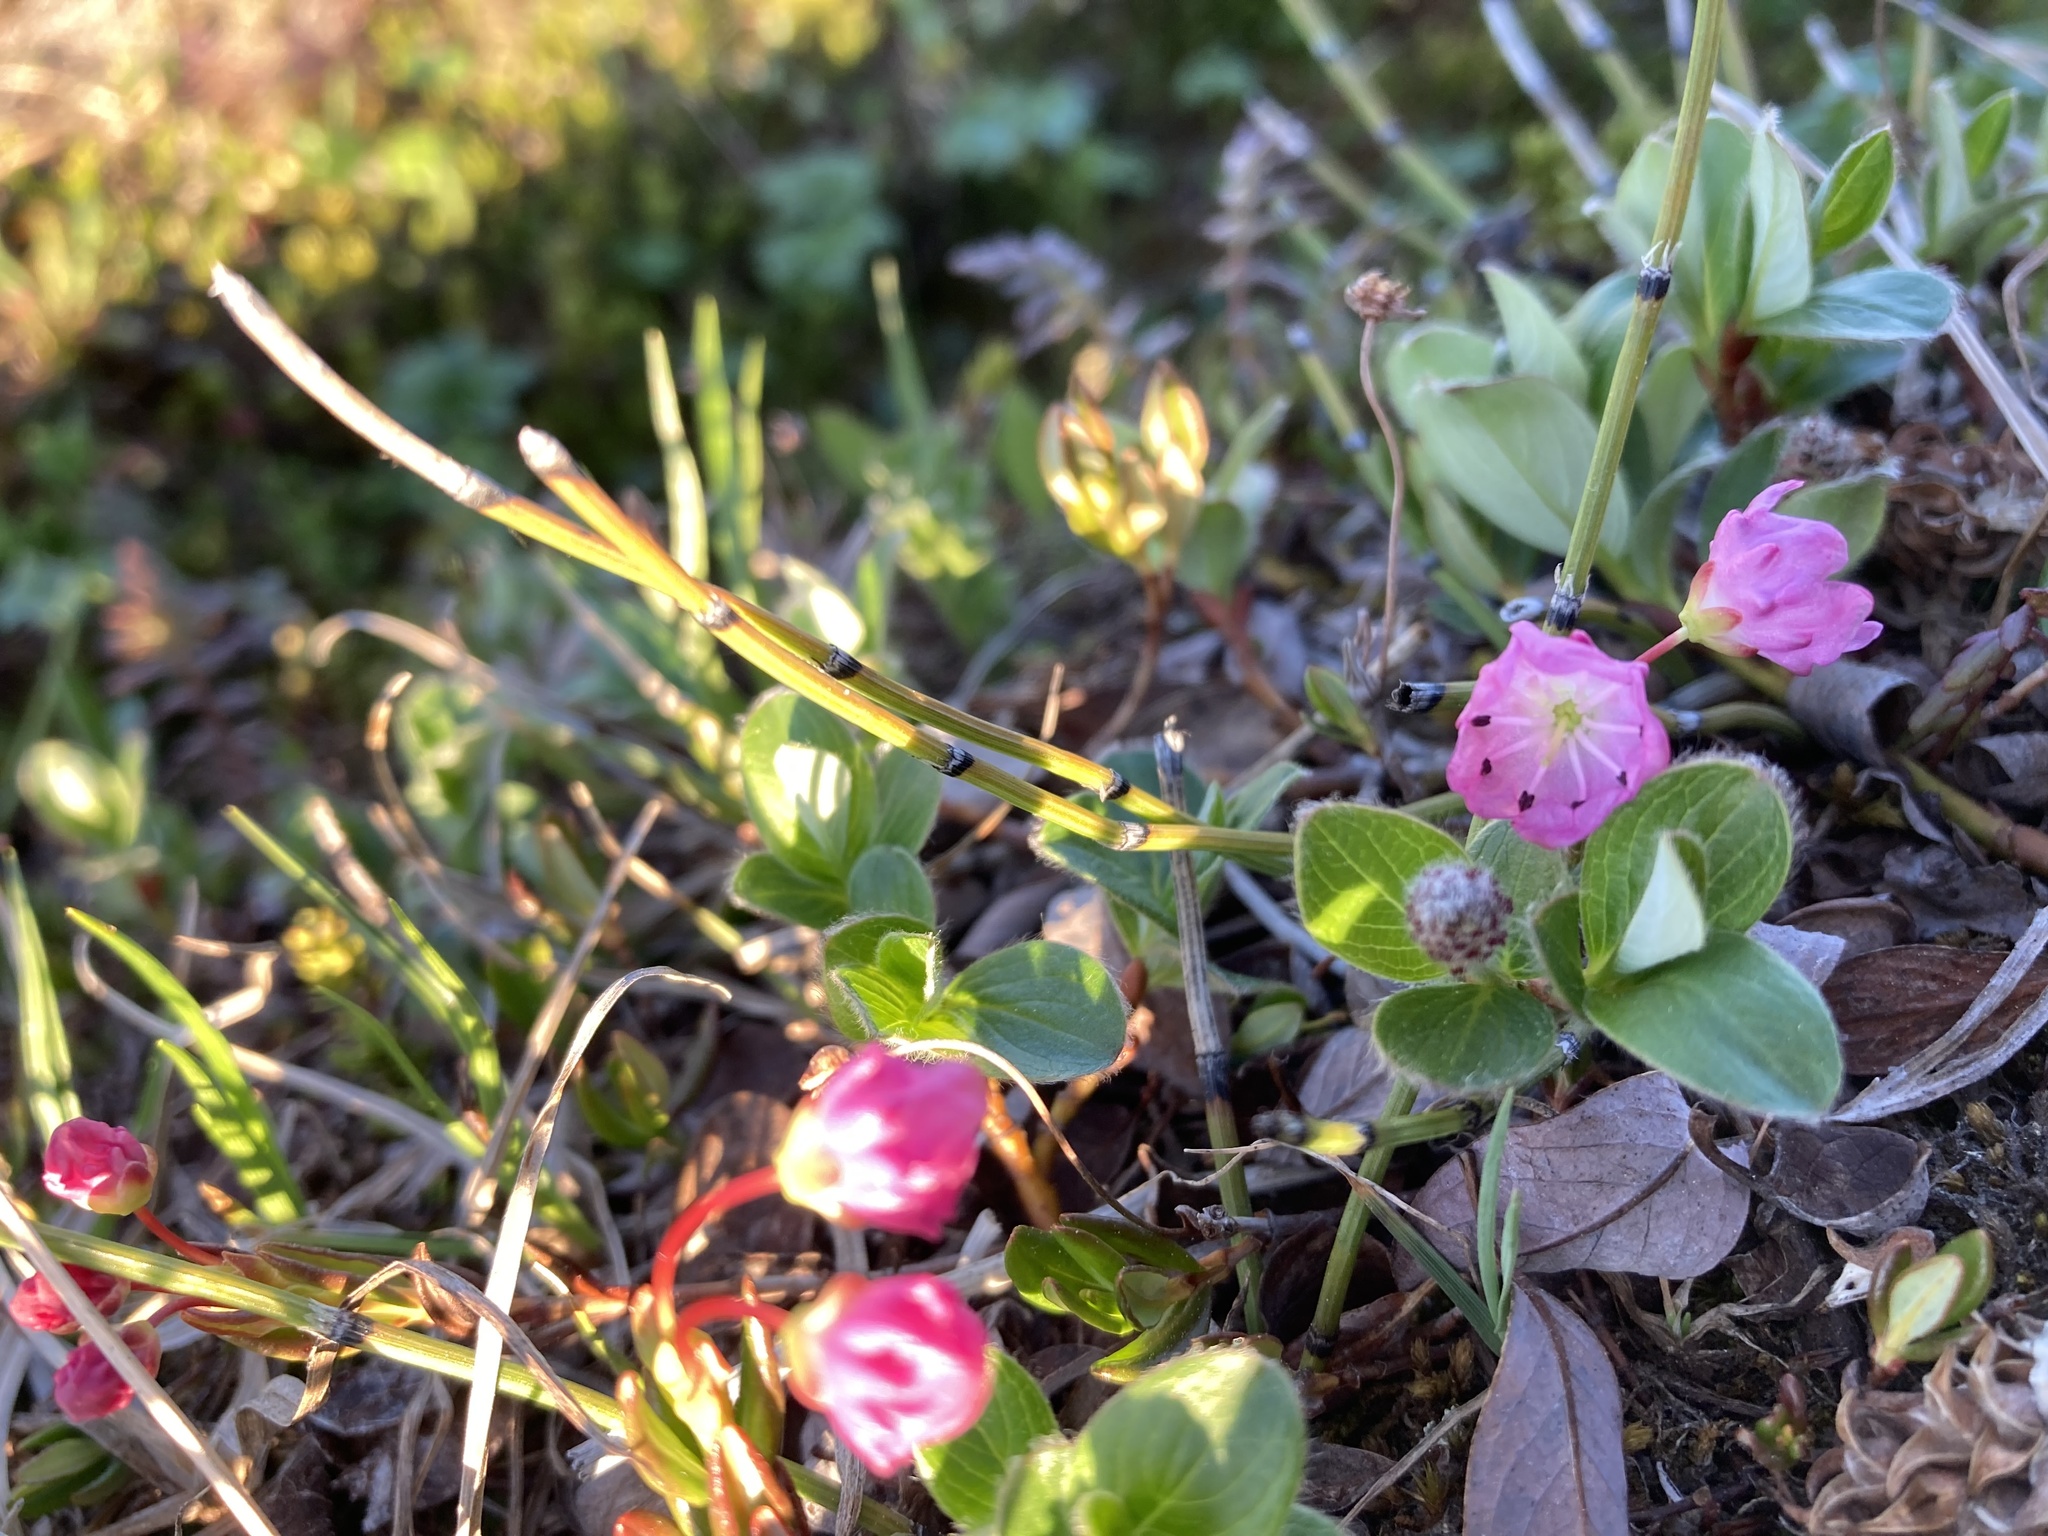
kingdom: Plantae
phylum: Tracheophyta
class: Magnoliopsida
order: Ericales
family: Ericaceae
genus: Kalmia
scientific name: Kalmia microphylla
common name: Alpine bog laurel
